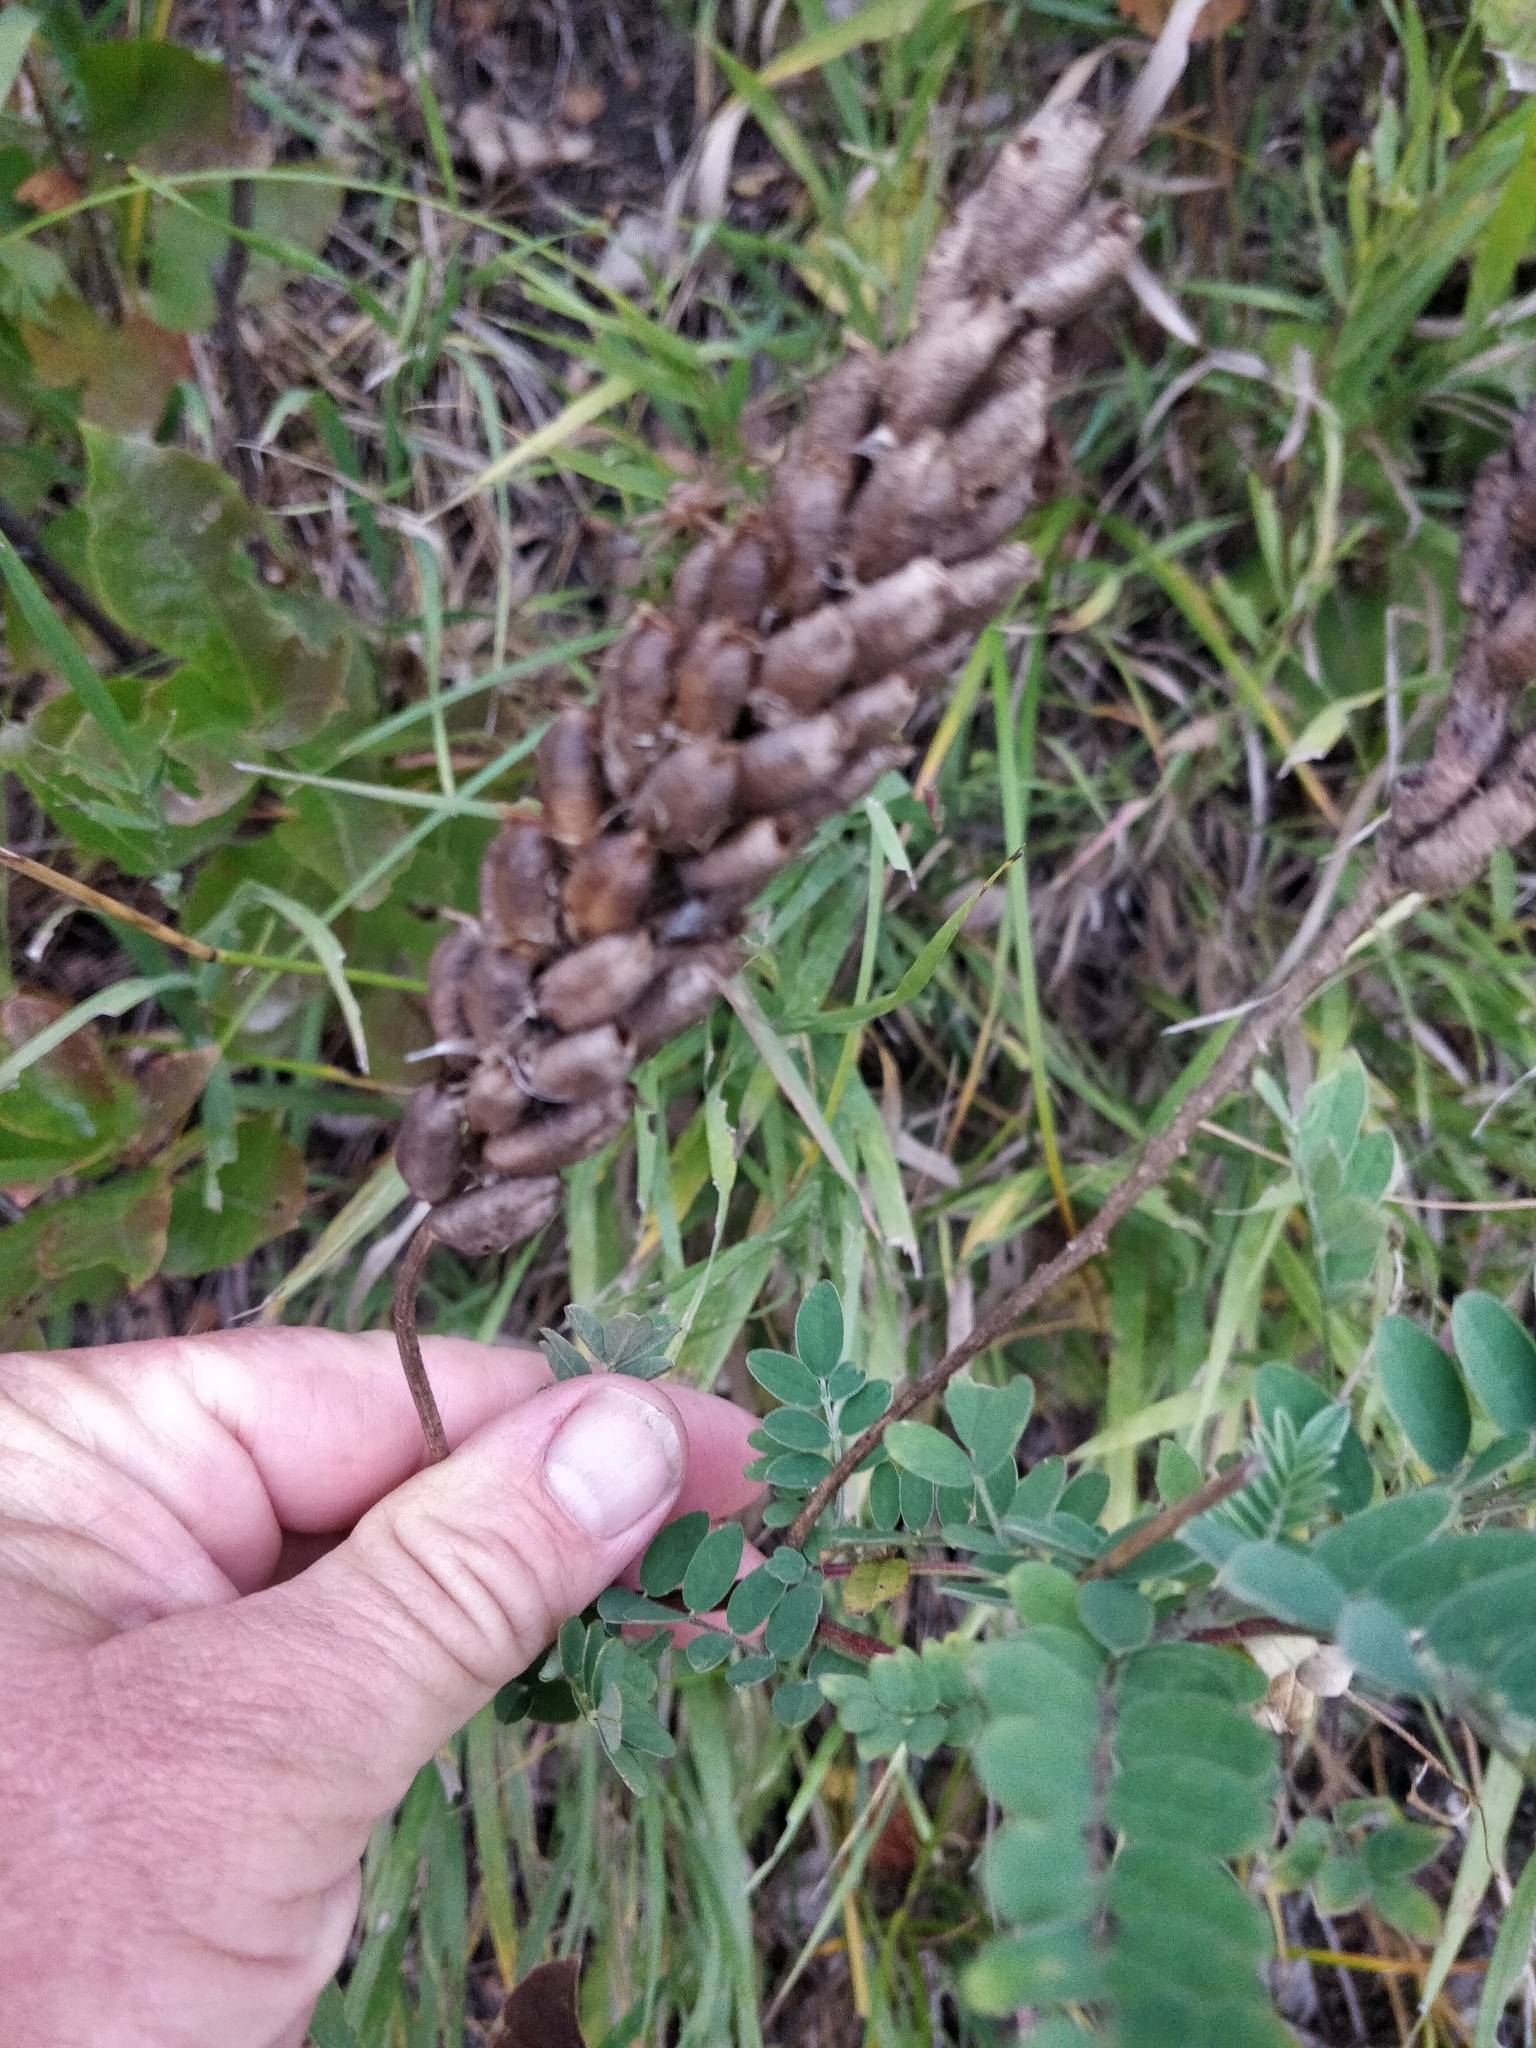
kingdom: Plantae
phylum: Tracheophyta
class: Magnoliopsida
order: Fabales
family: Fabaceae
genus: Astragalus
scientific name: Astragalus canadensis
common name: Canada milk-vetch
